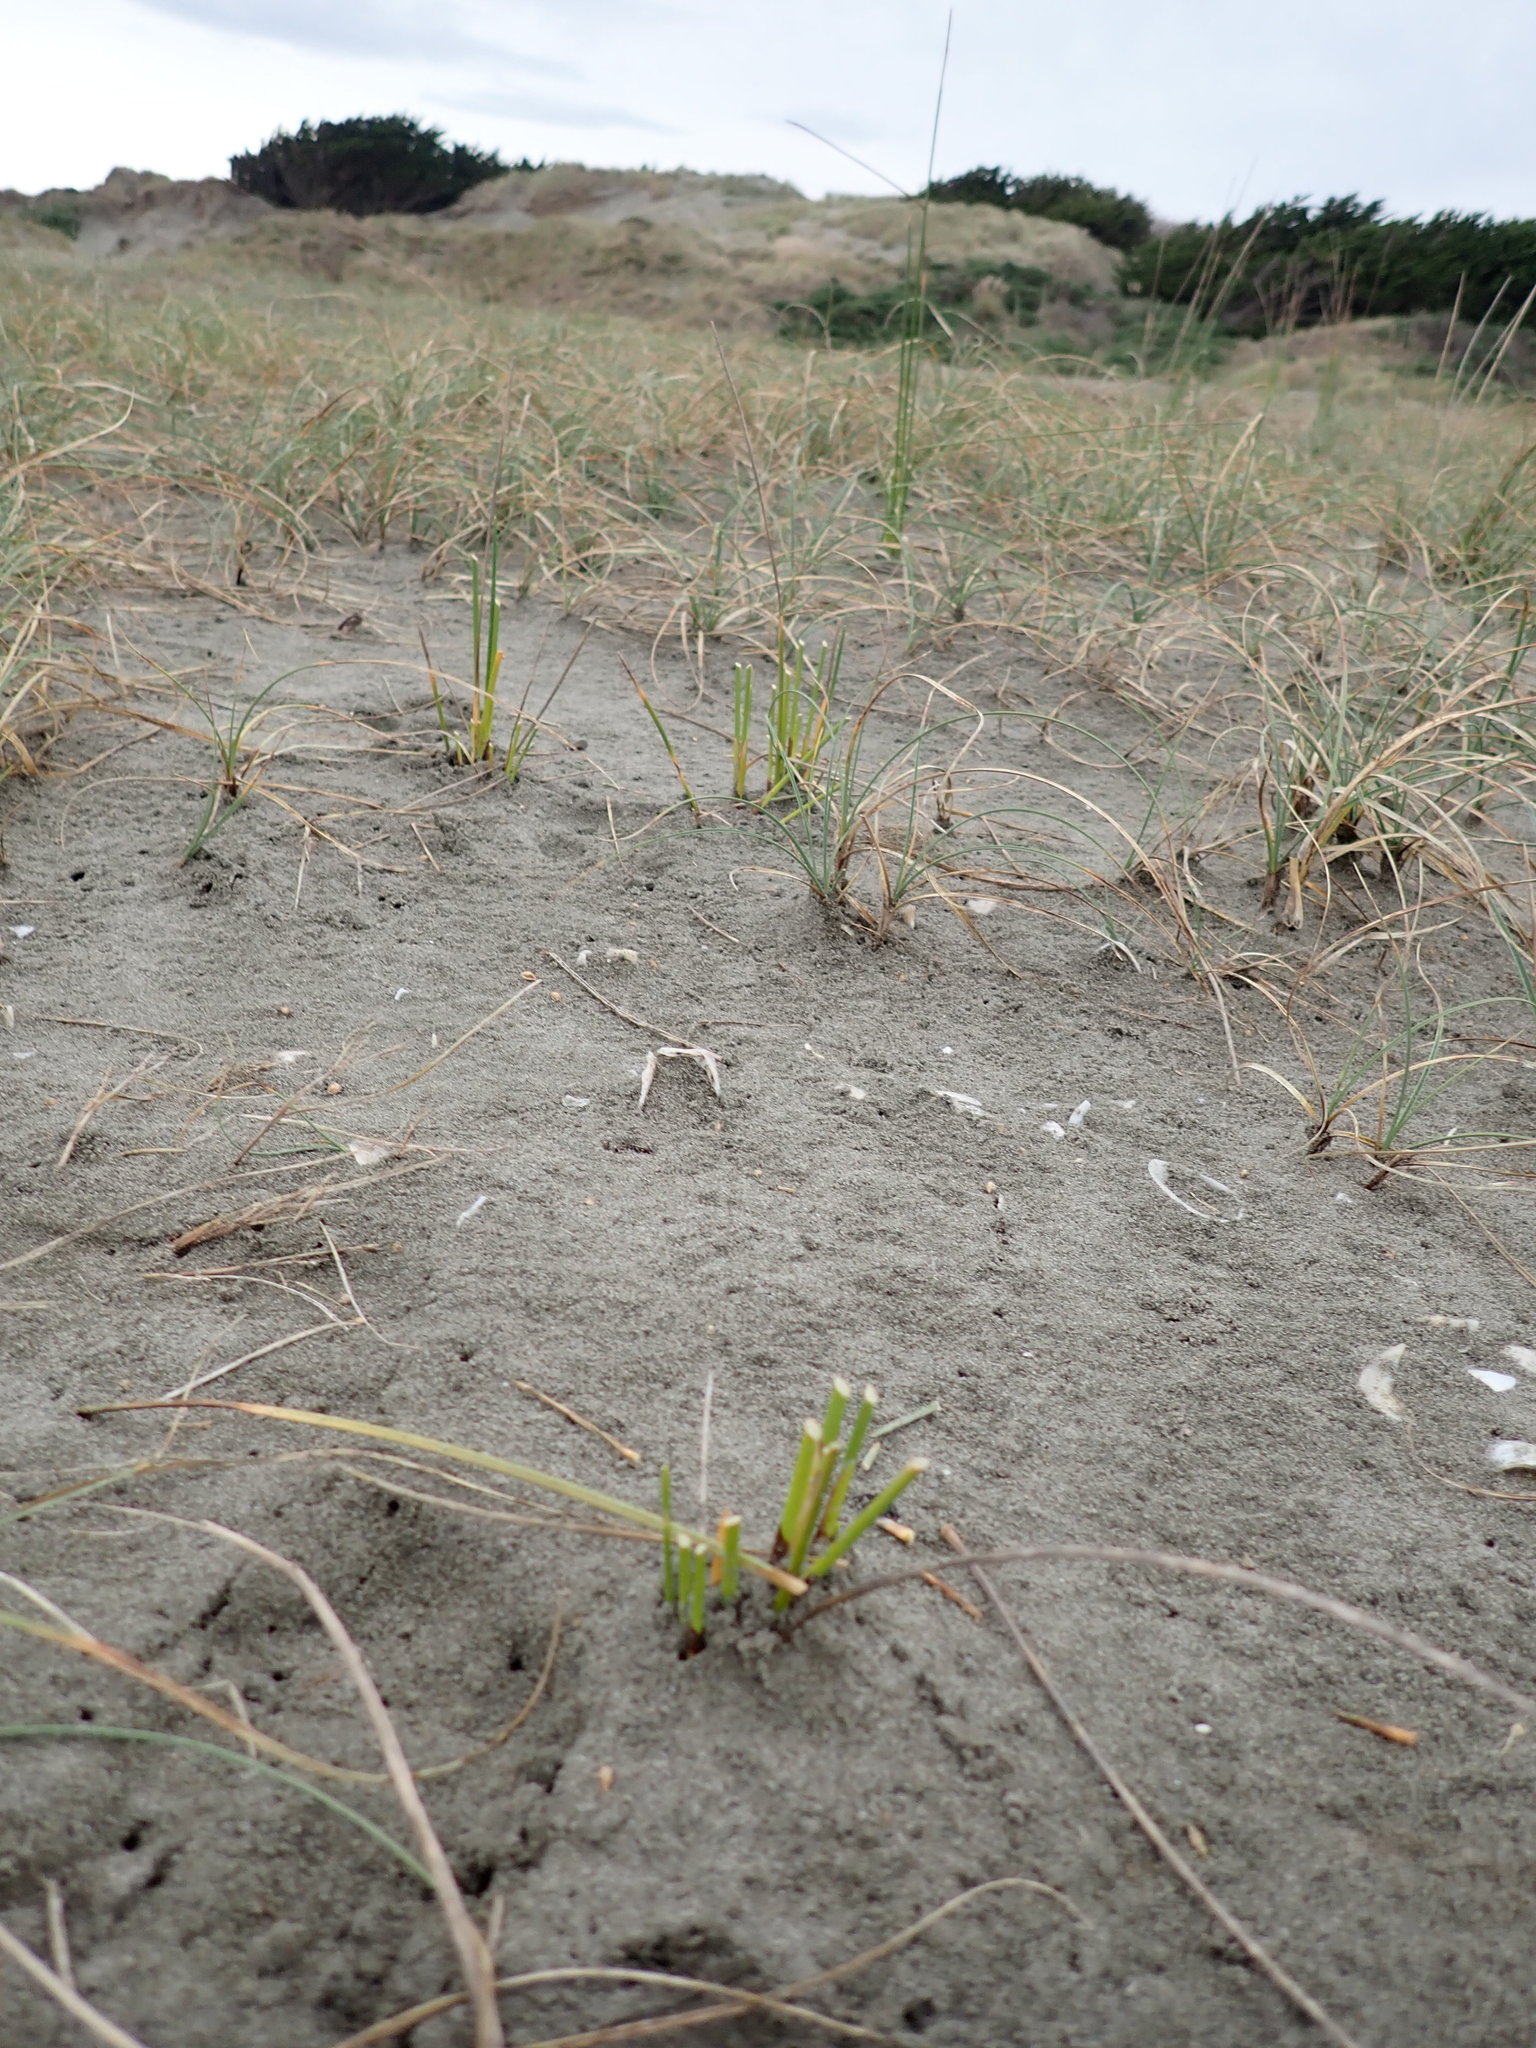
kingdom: Plantae
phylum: Tracheophyta
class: Liliopsida
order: Poales
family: Cyperaceae
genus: Ficinia
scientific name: Ficinia nodosa
